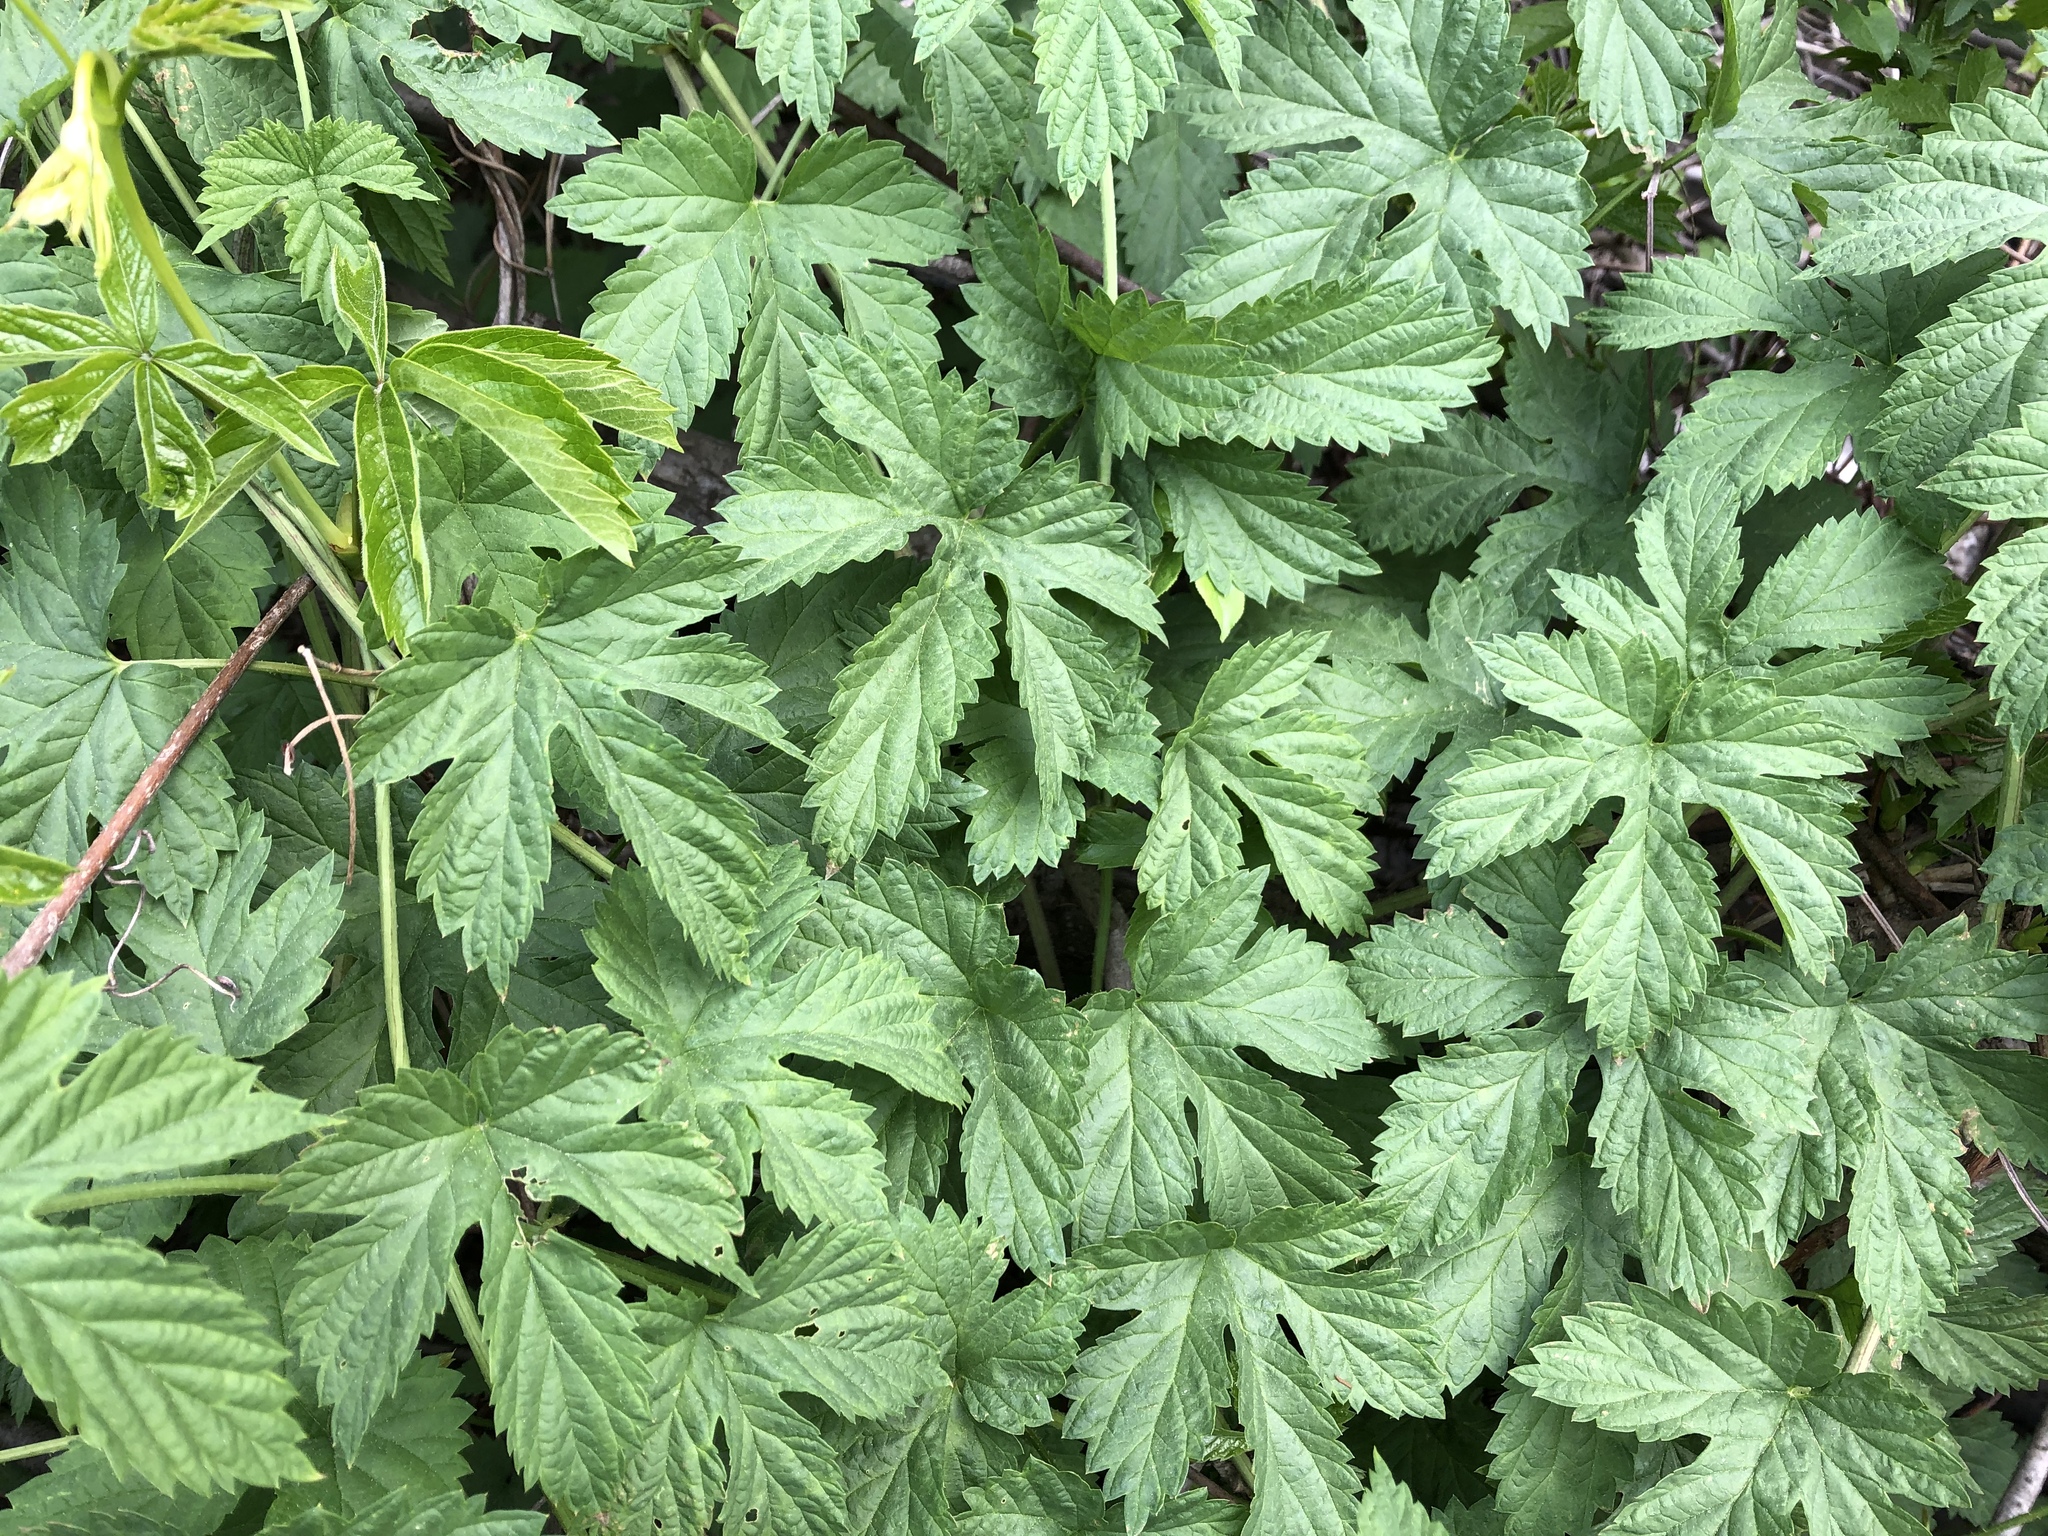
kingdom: Plantae
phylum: Tracheophyta
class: Magnoliopsida
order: Rosales
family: Cannabaceae
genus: Humulus
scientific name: Humulus lupulus
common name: Hop
